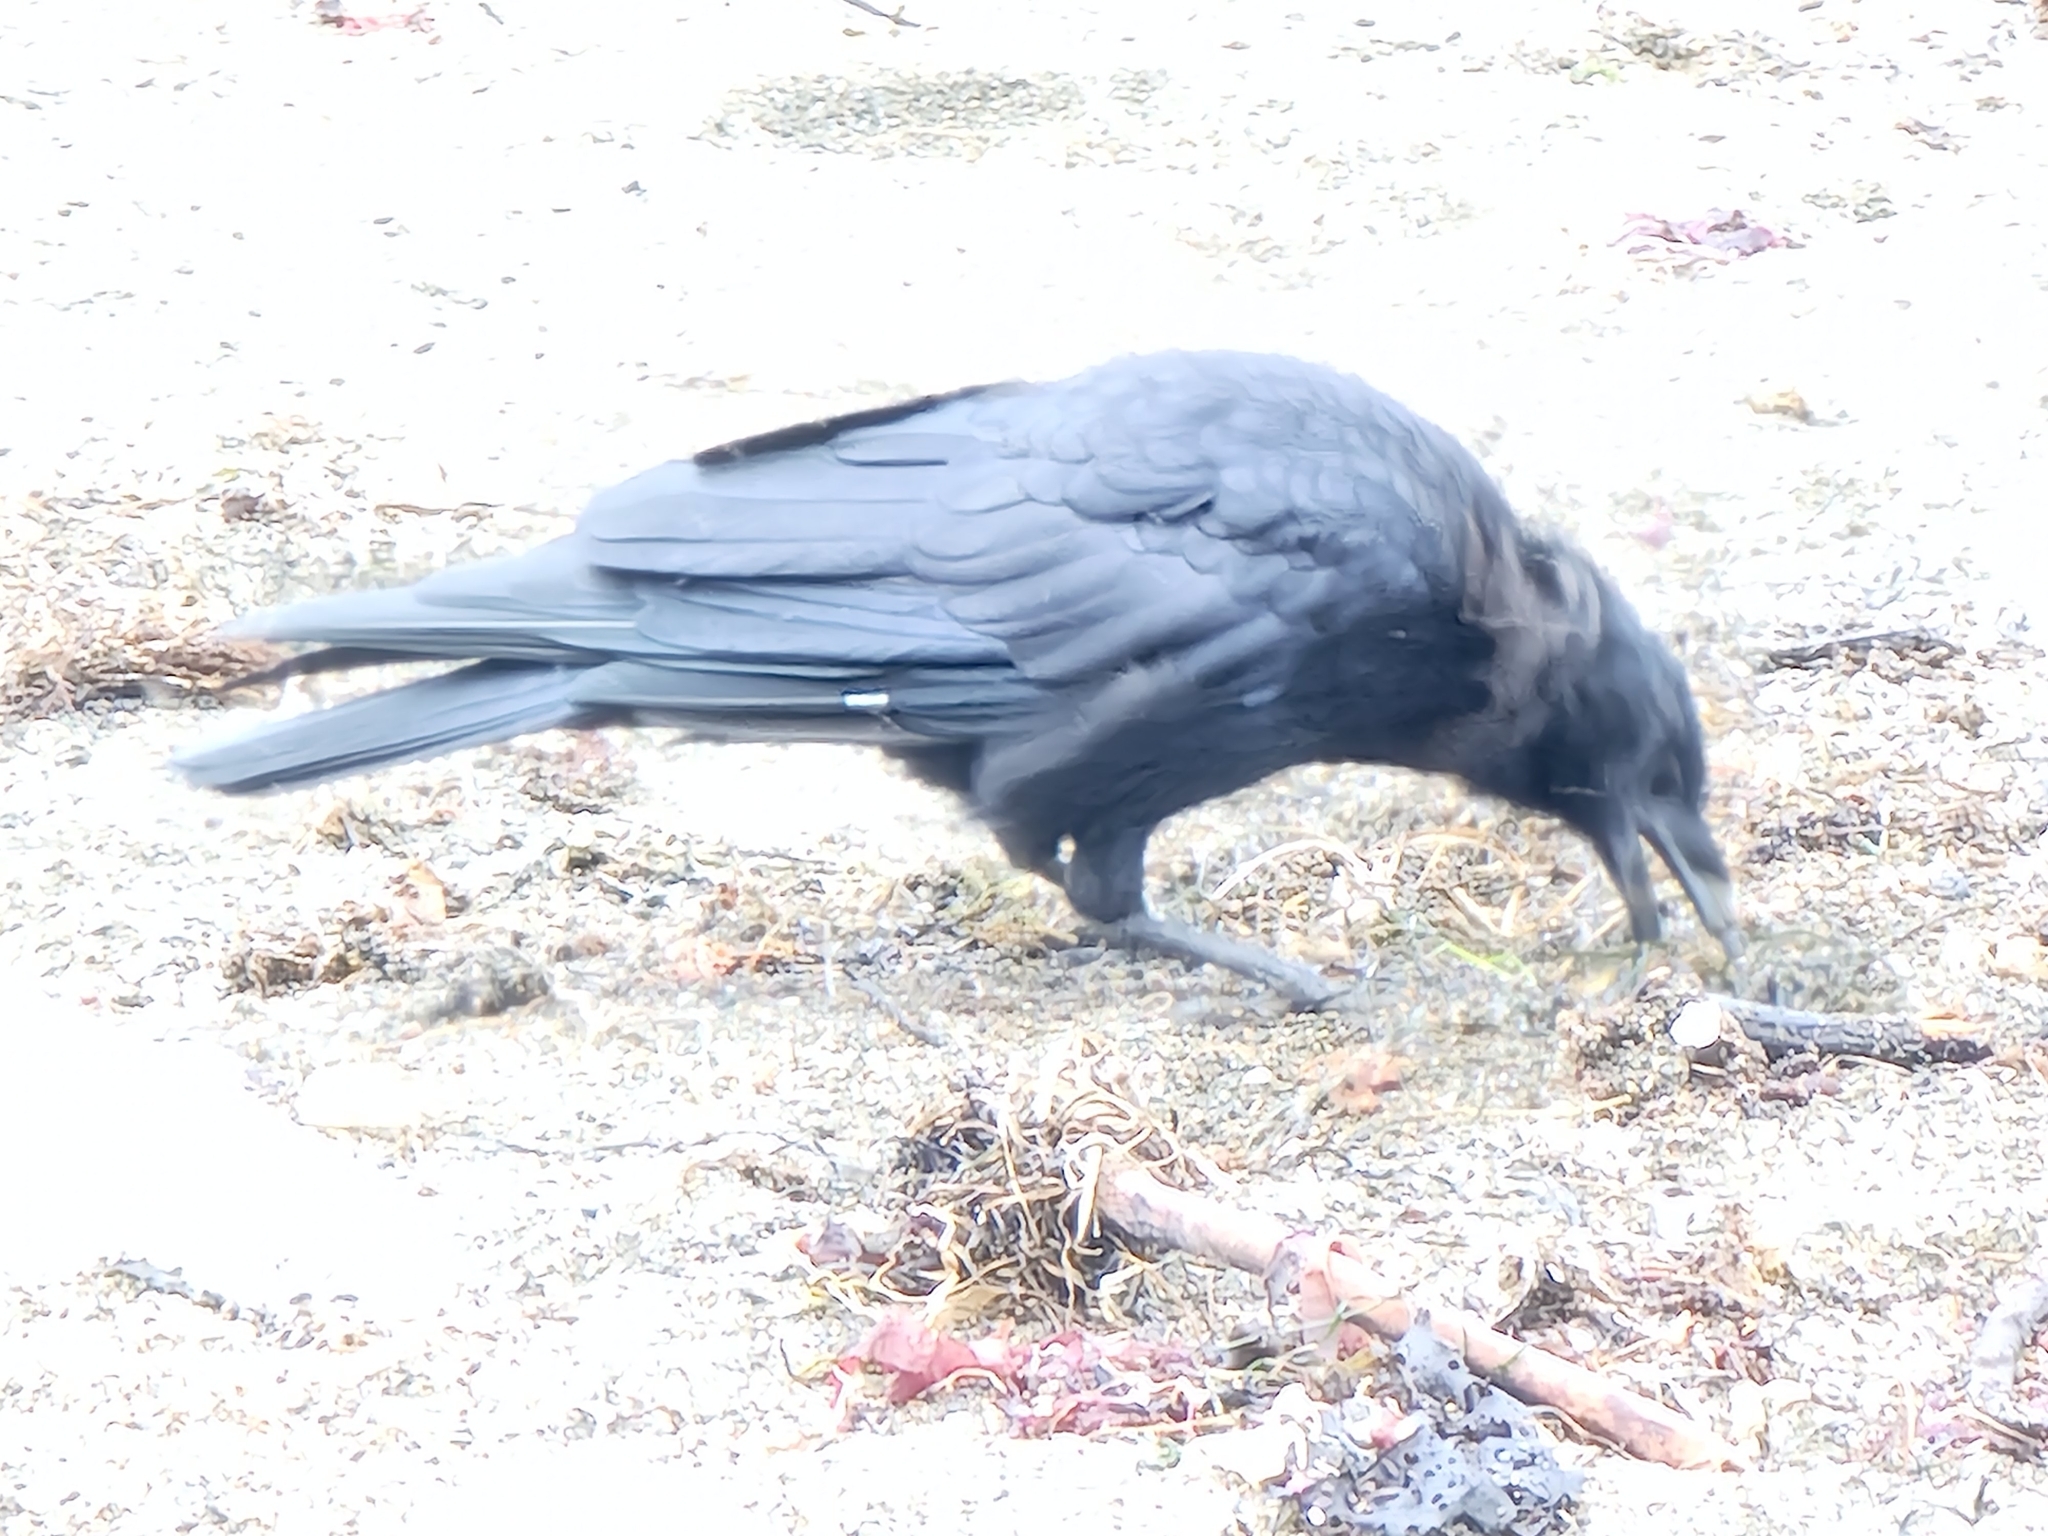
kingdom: Animalia
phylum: Chordata
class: Aves
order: Passeriformes
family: Corvidae
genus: Corvus
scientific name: Corvus brachyrhynchos
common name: American crow
